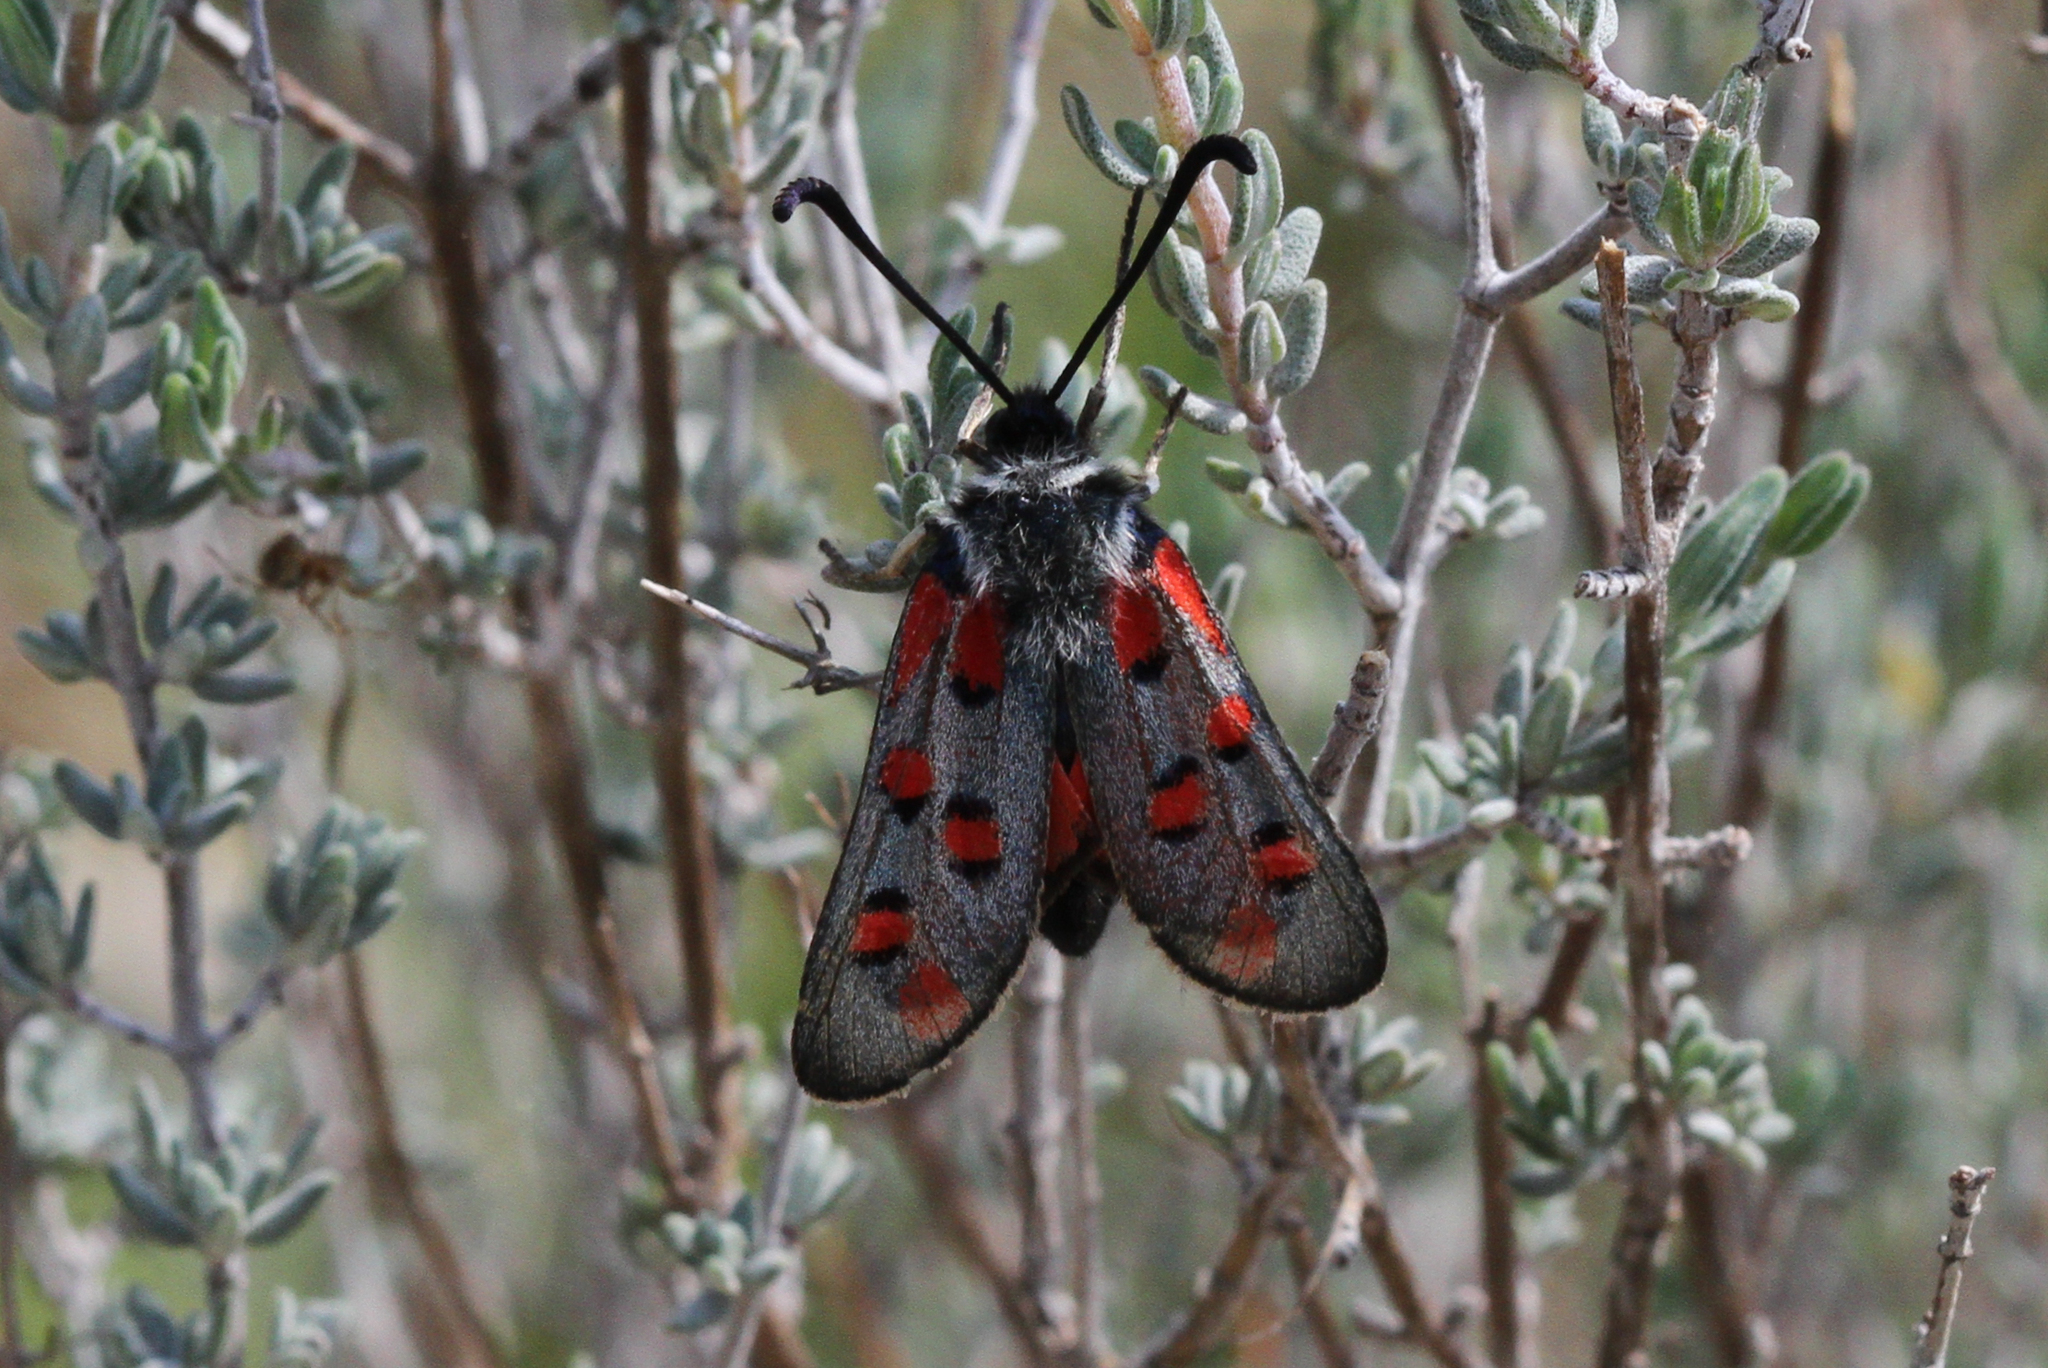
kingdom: Animalia
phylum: Arthropoda
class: Insecta
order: Lepidoptera
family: Zygaenidae
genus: Zygaena
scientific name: Zygaena rhadamanthus
